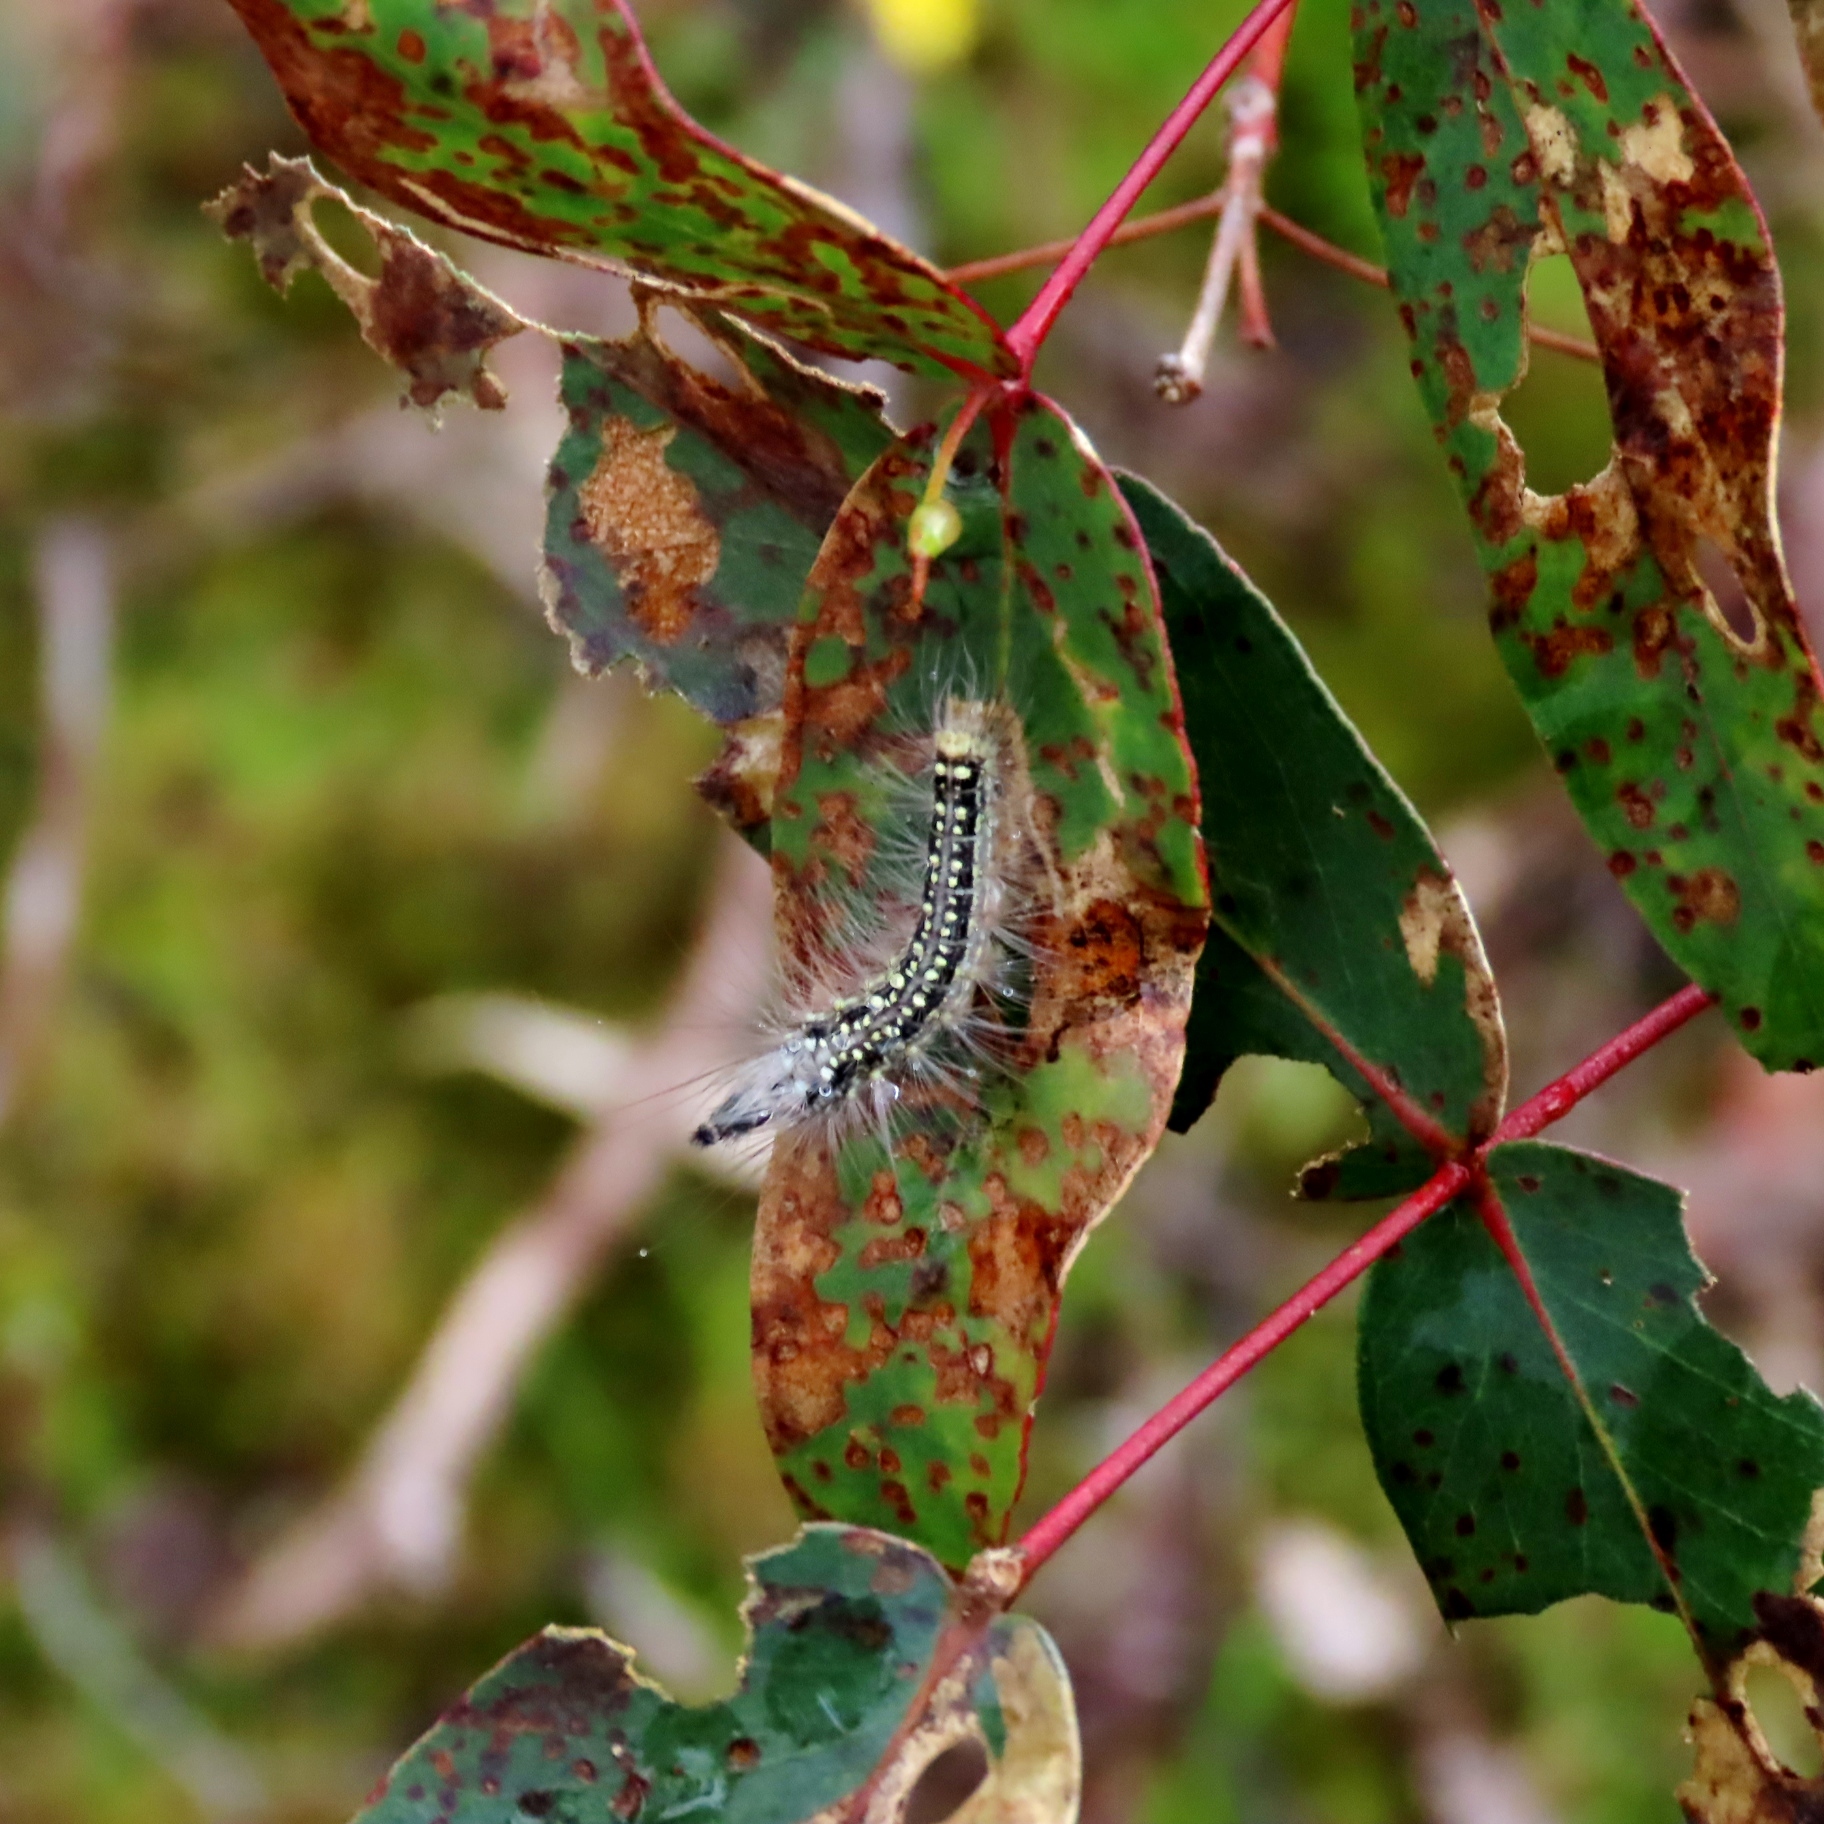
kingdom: Animalia
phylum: Arthropoda
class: Insecta
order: Lepidoptera
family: Nolidae
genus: Uraba
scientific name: Uraba lugens
